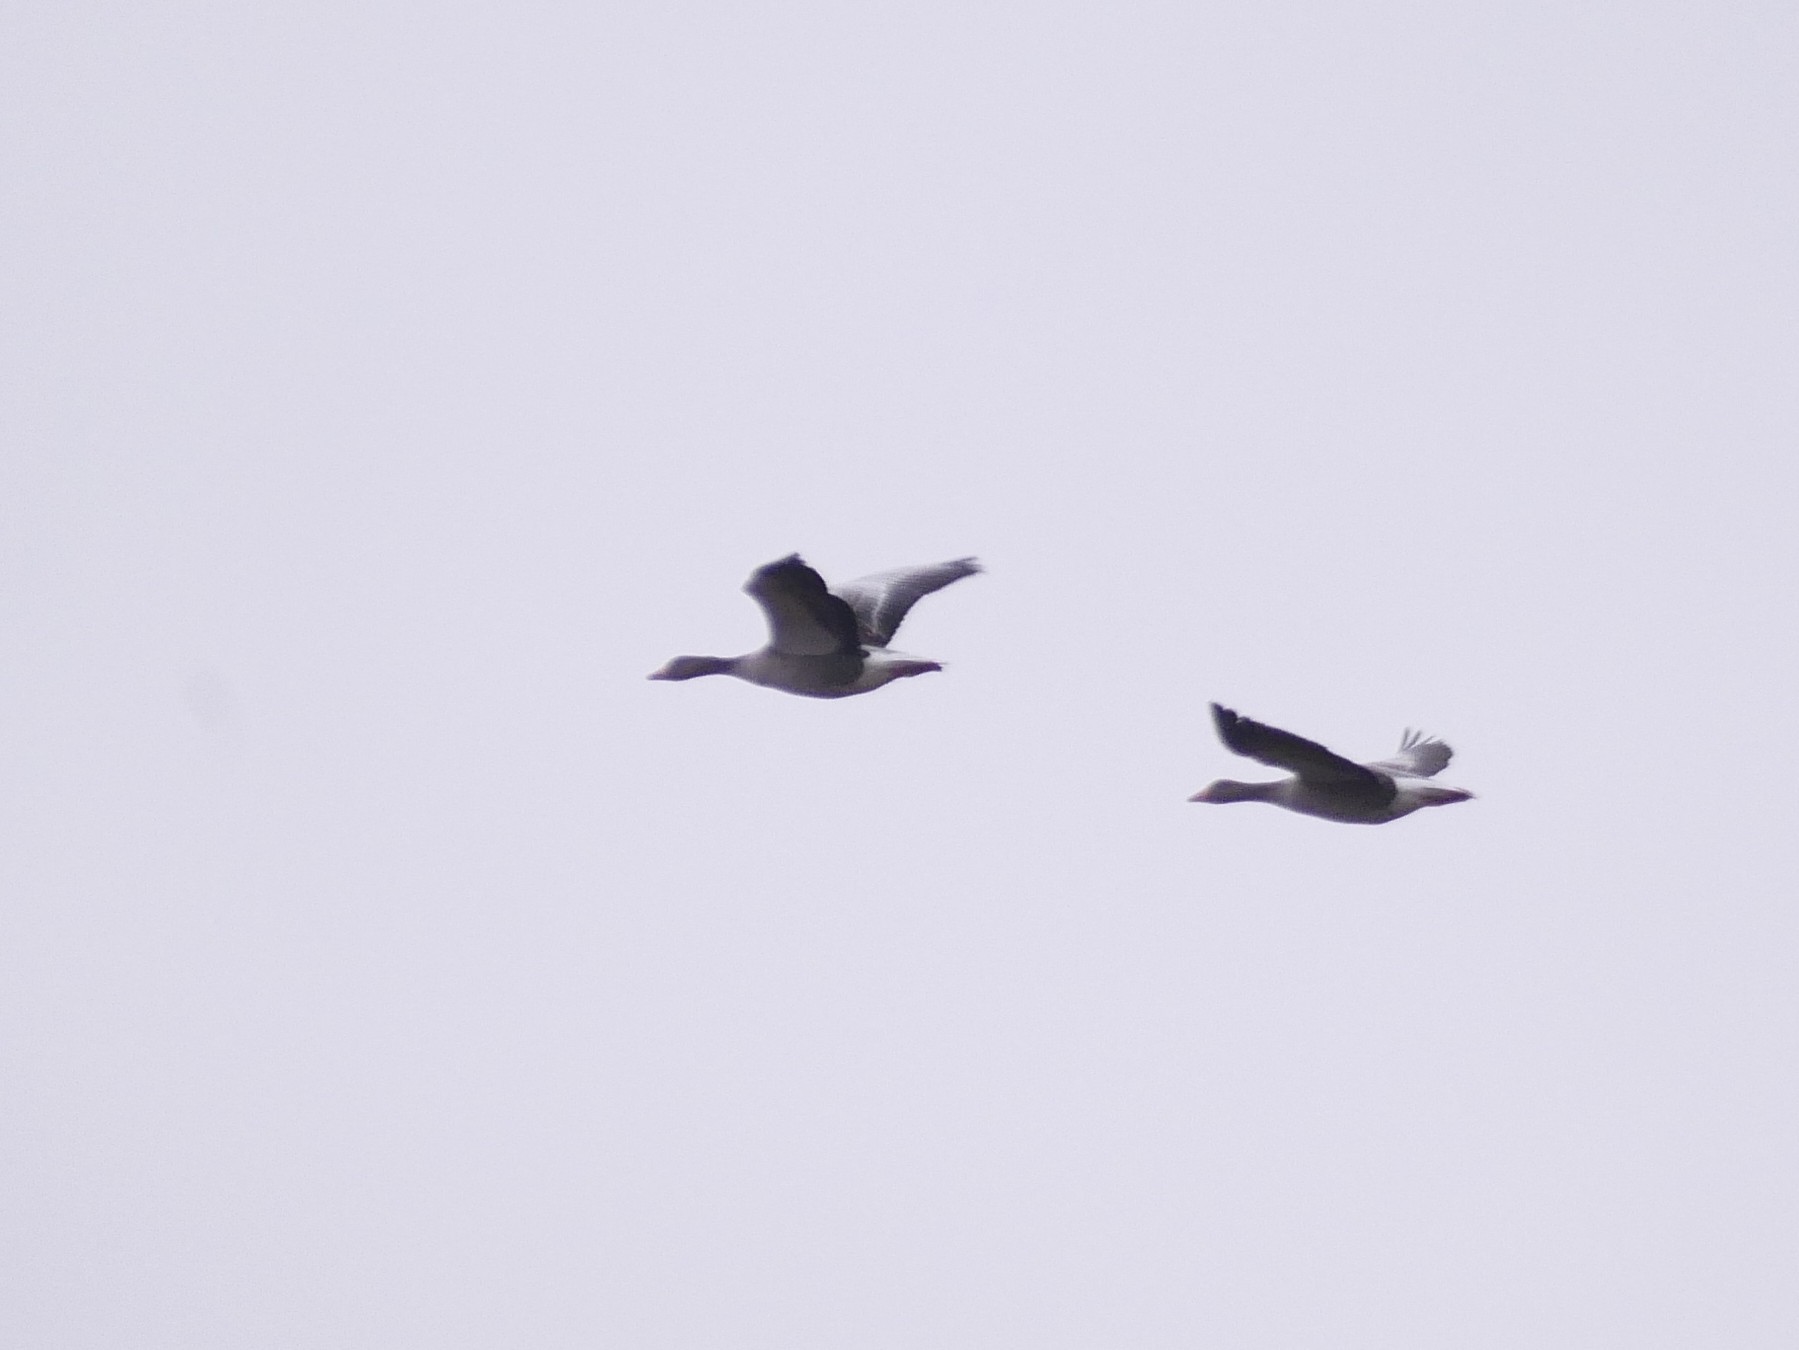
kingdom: Animalia
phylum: Chordata
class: Aves
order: Anseriformes
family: Anatidae
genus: Anser
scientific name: Anser anser
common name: Greylag goose
